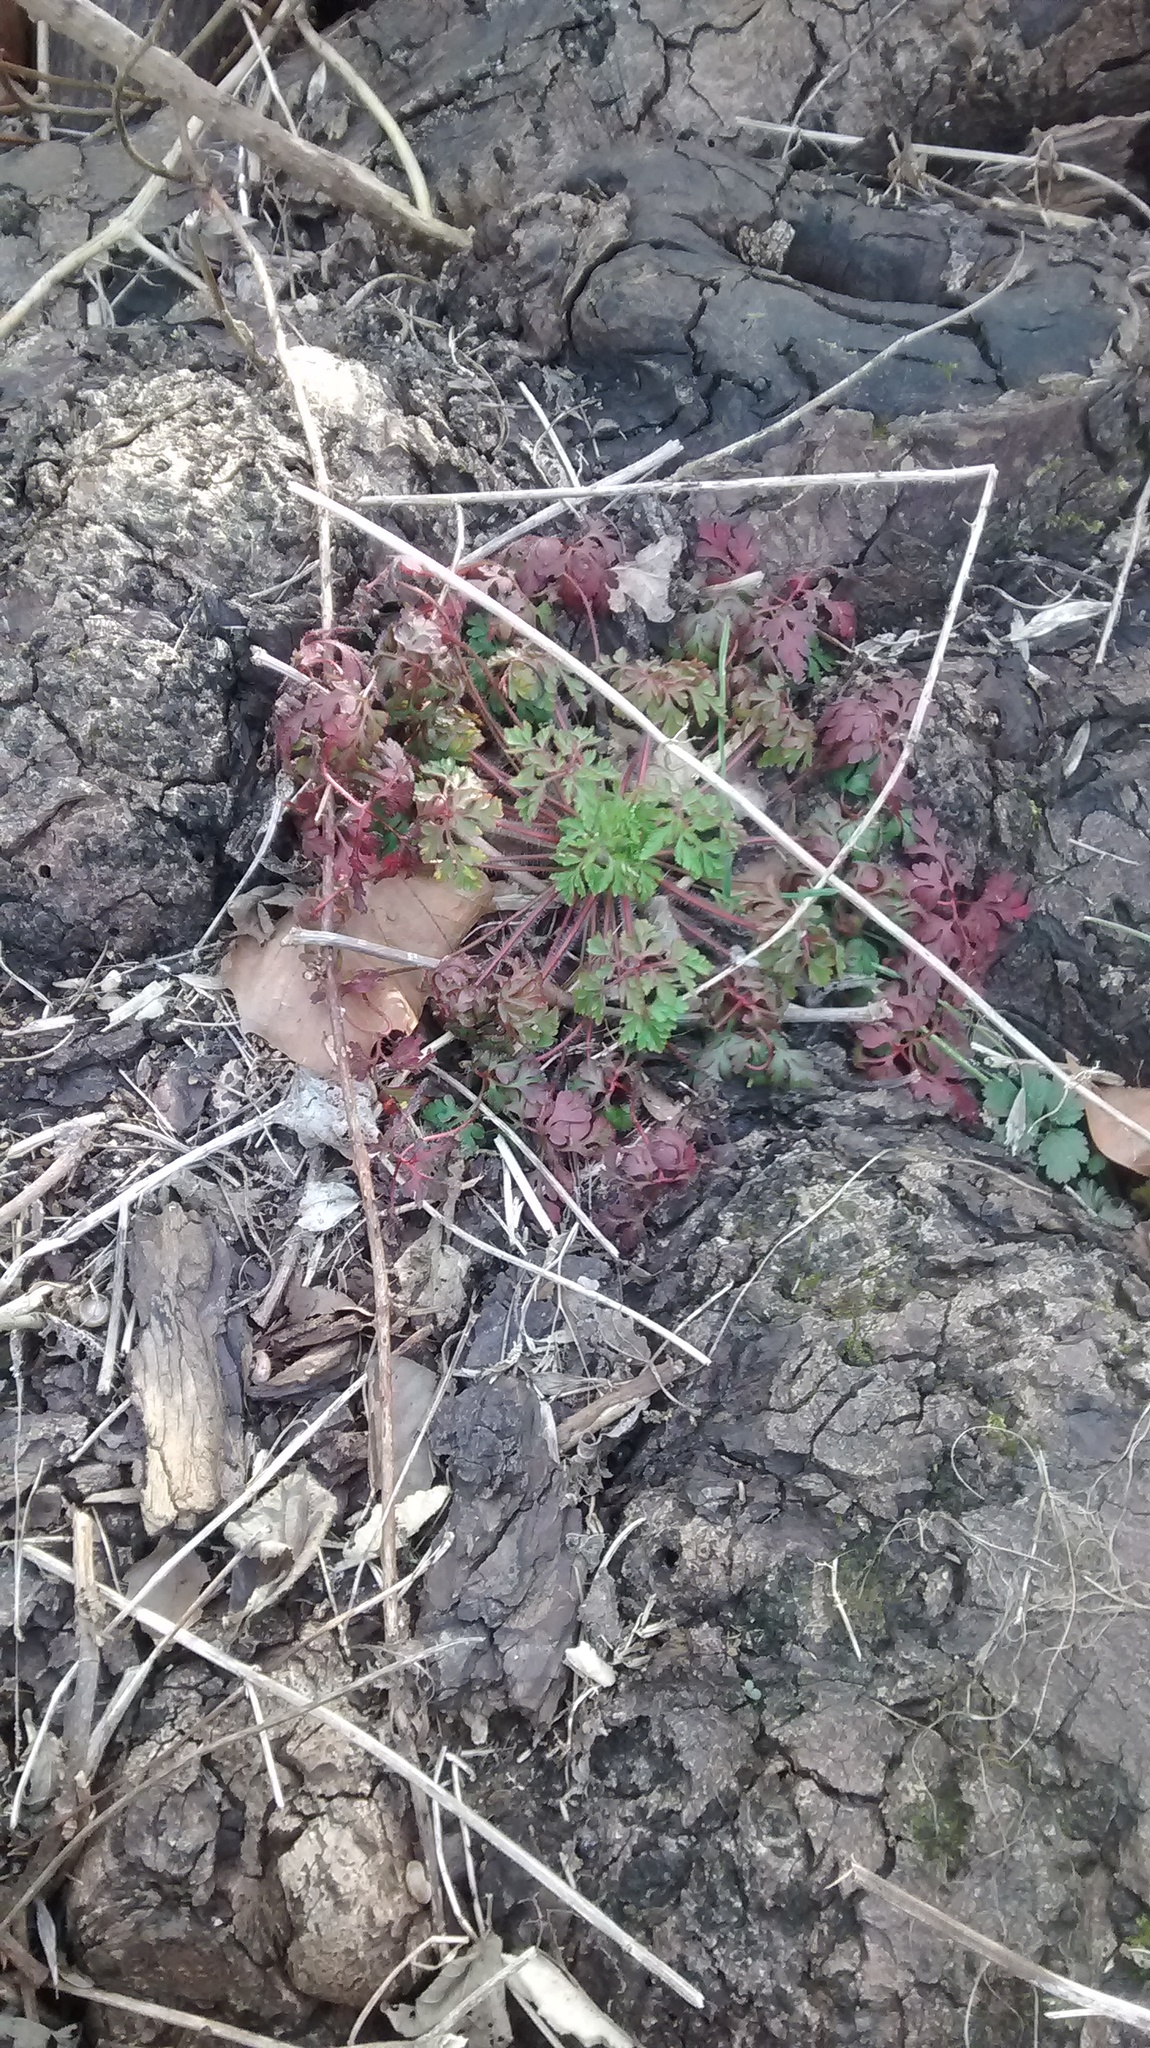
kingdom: Plantae
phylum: Tracheophyta
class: Magnoliopsida
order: Geraniales
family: Geraniaceae
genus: Geranium
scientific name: Geranium robertianum
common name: Herb-robert
